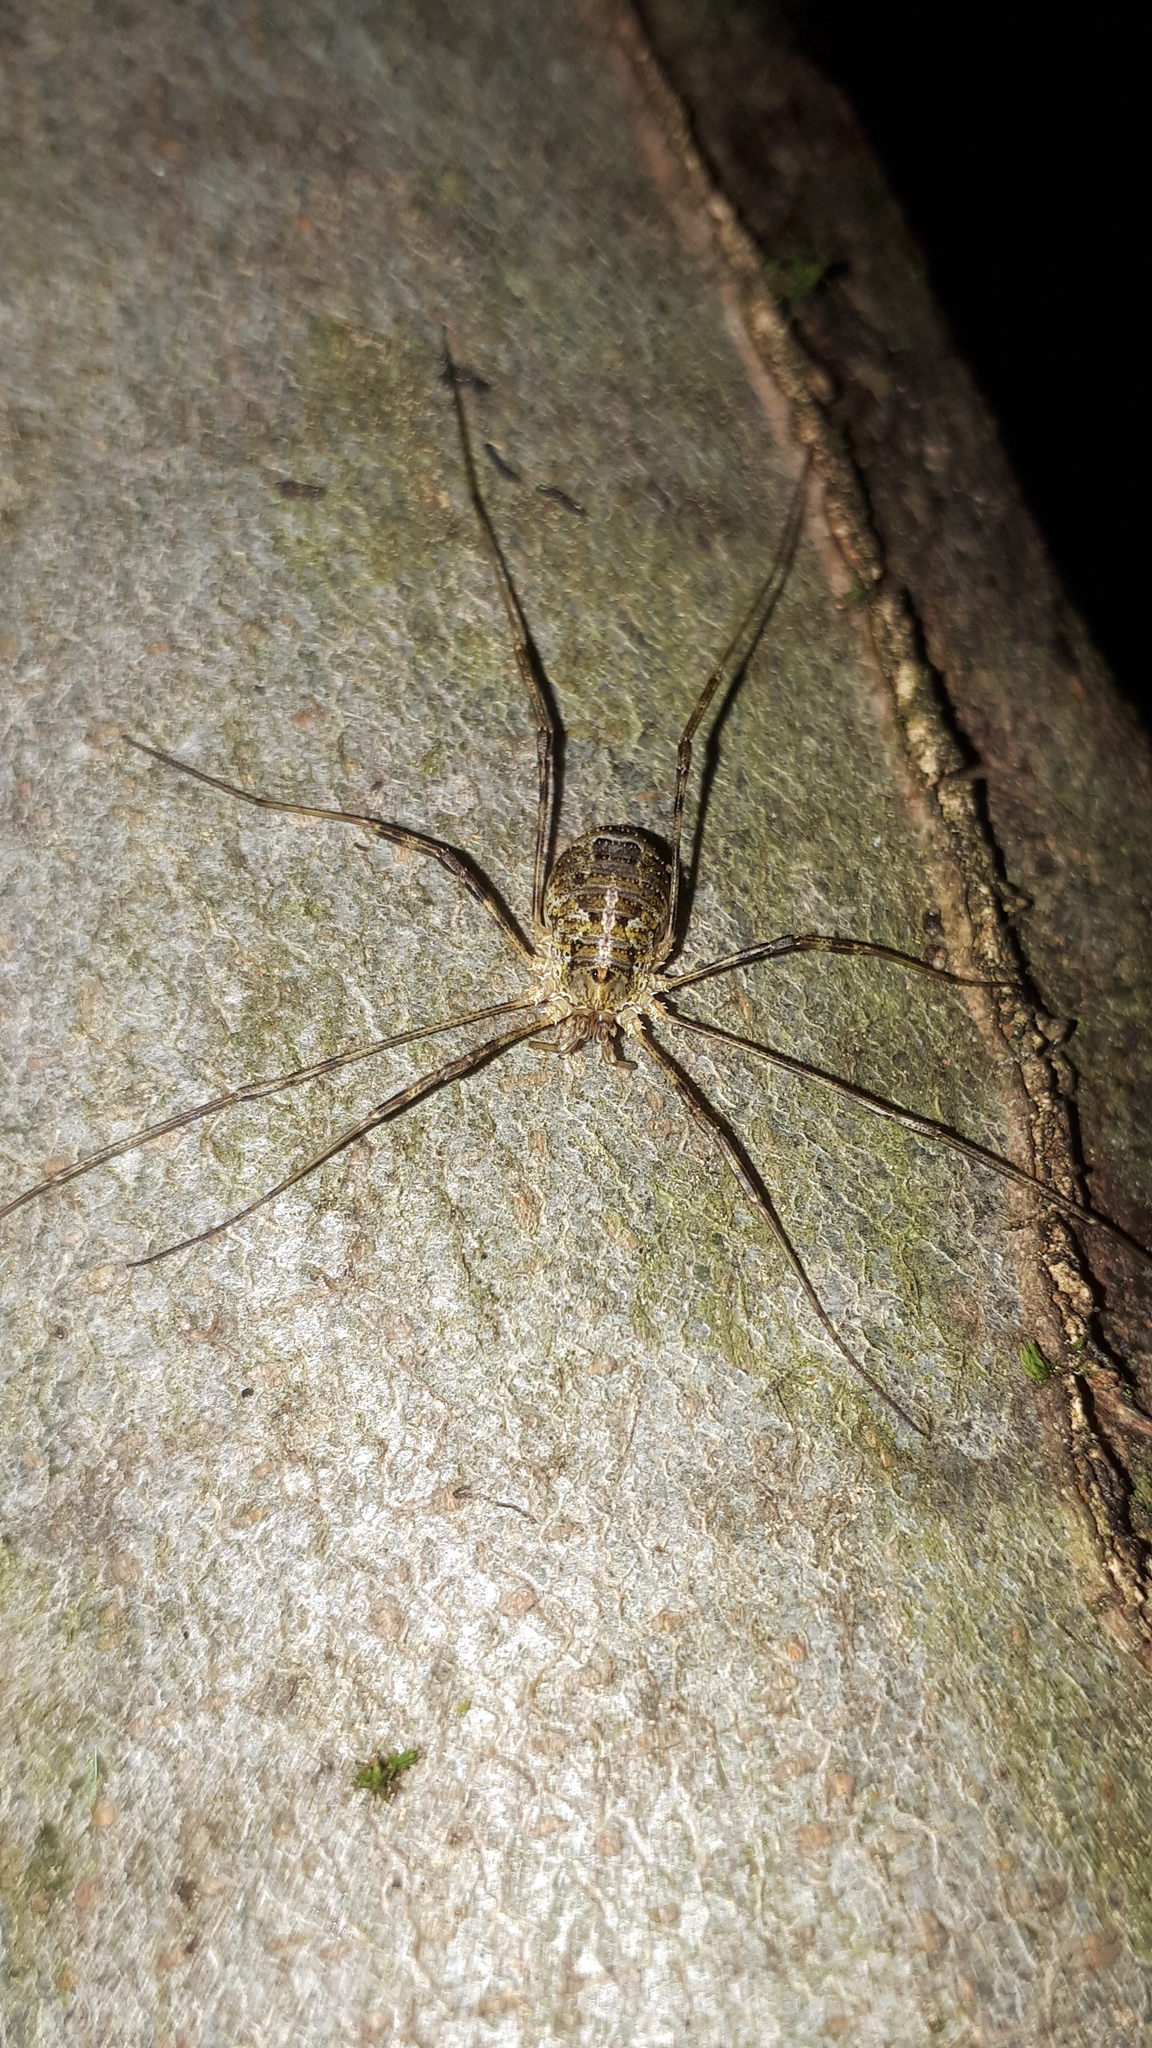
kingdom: Animalia
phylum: Arthropoda
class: Arachnida
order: Opiliones
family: Phalangiidae
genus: Lacinius
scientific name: Lacinius dentiger
